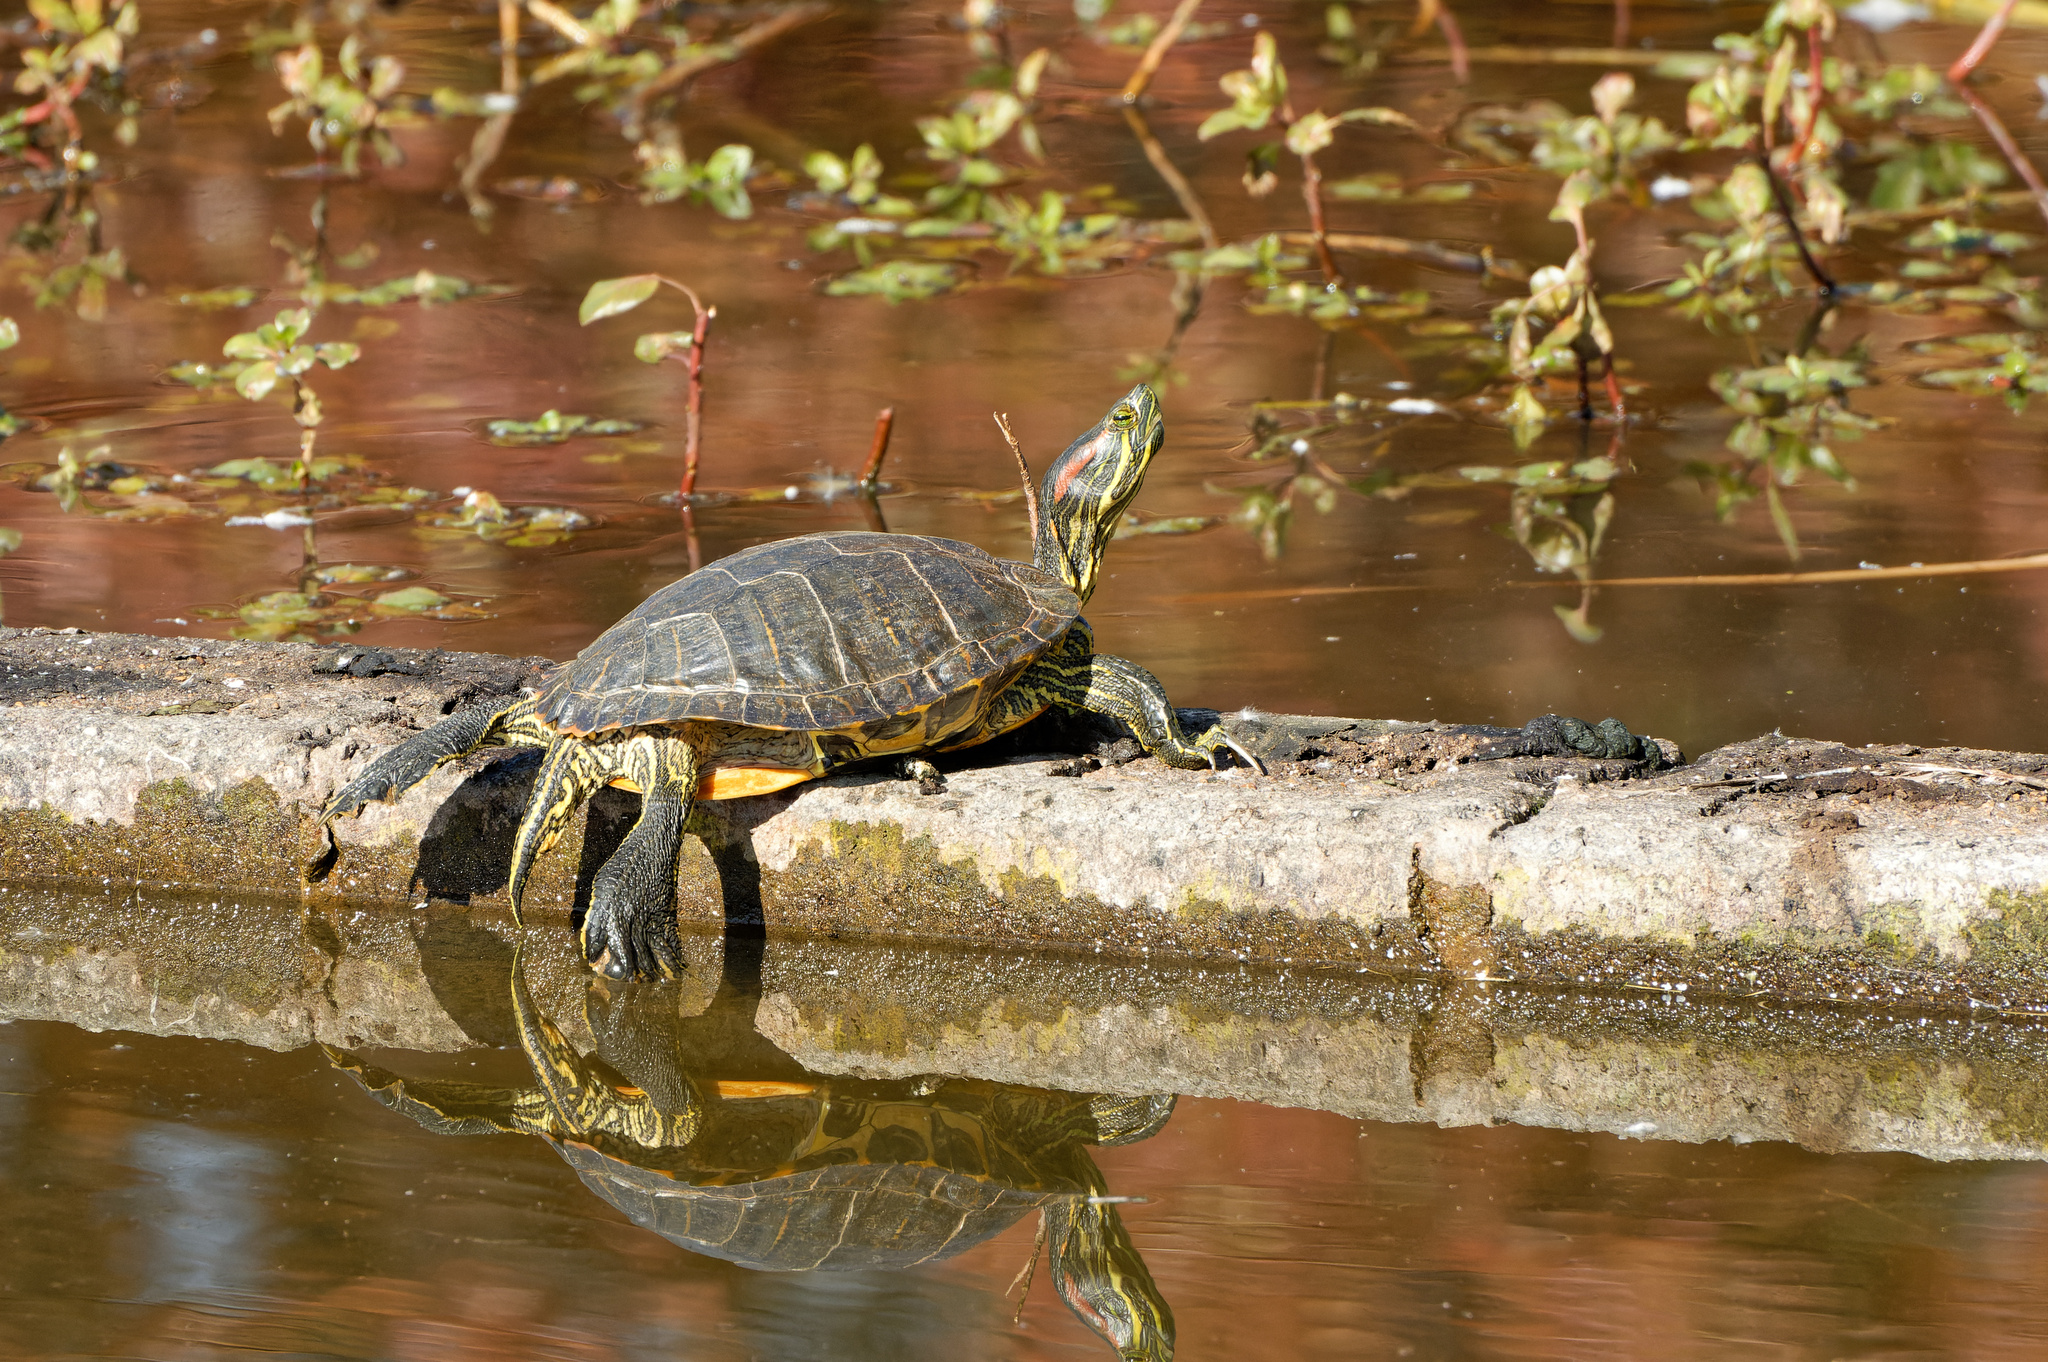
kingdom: Animalia
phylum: Chordata
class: Testudines
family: Emydidae
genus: Trachemys
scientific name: Trachemys scripta
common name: Slider
